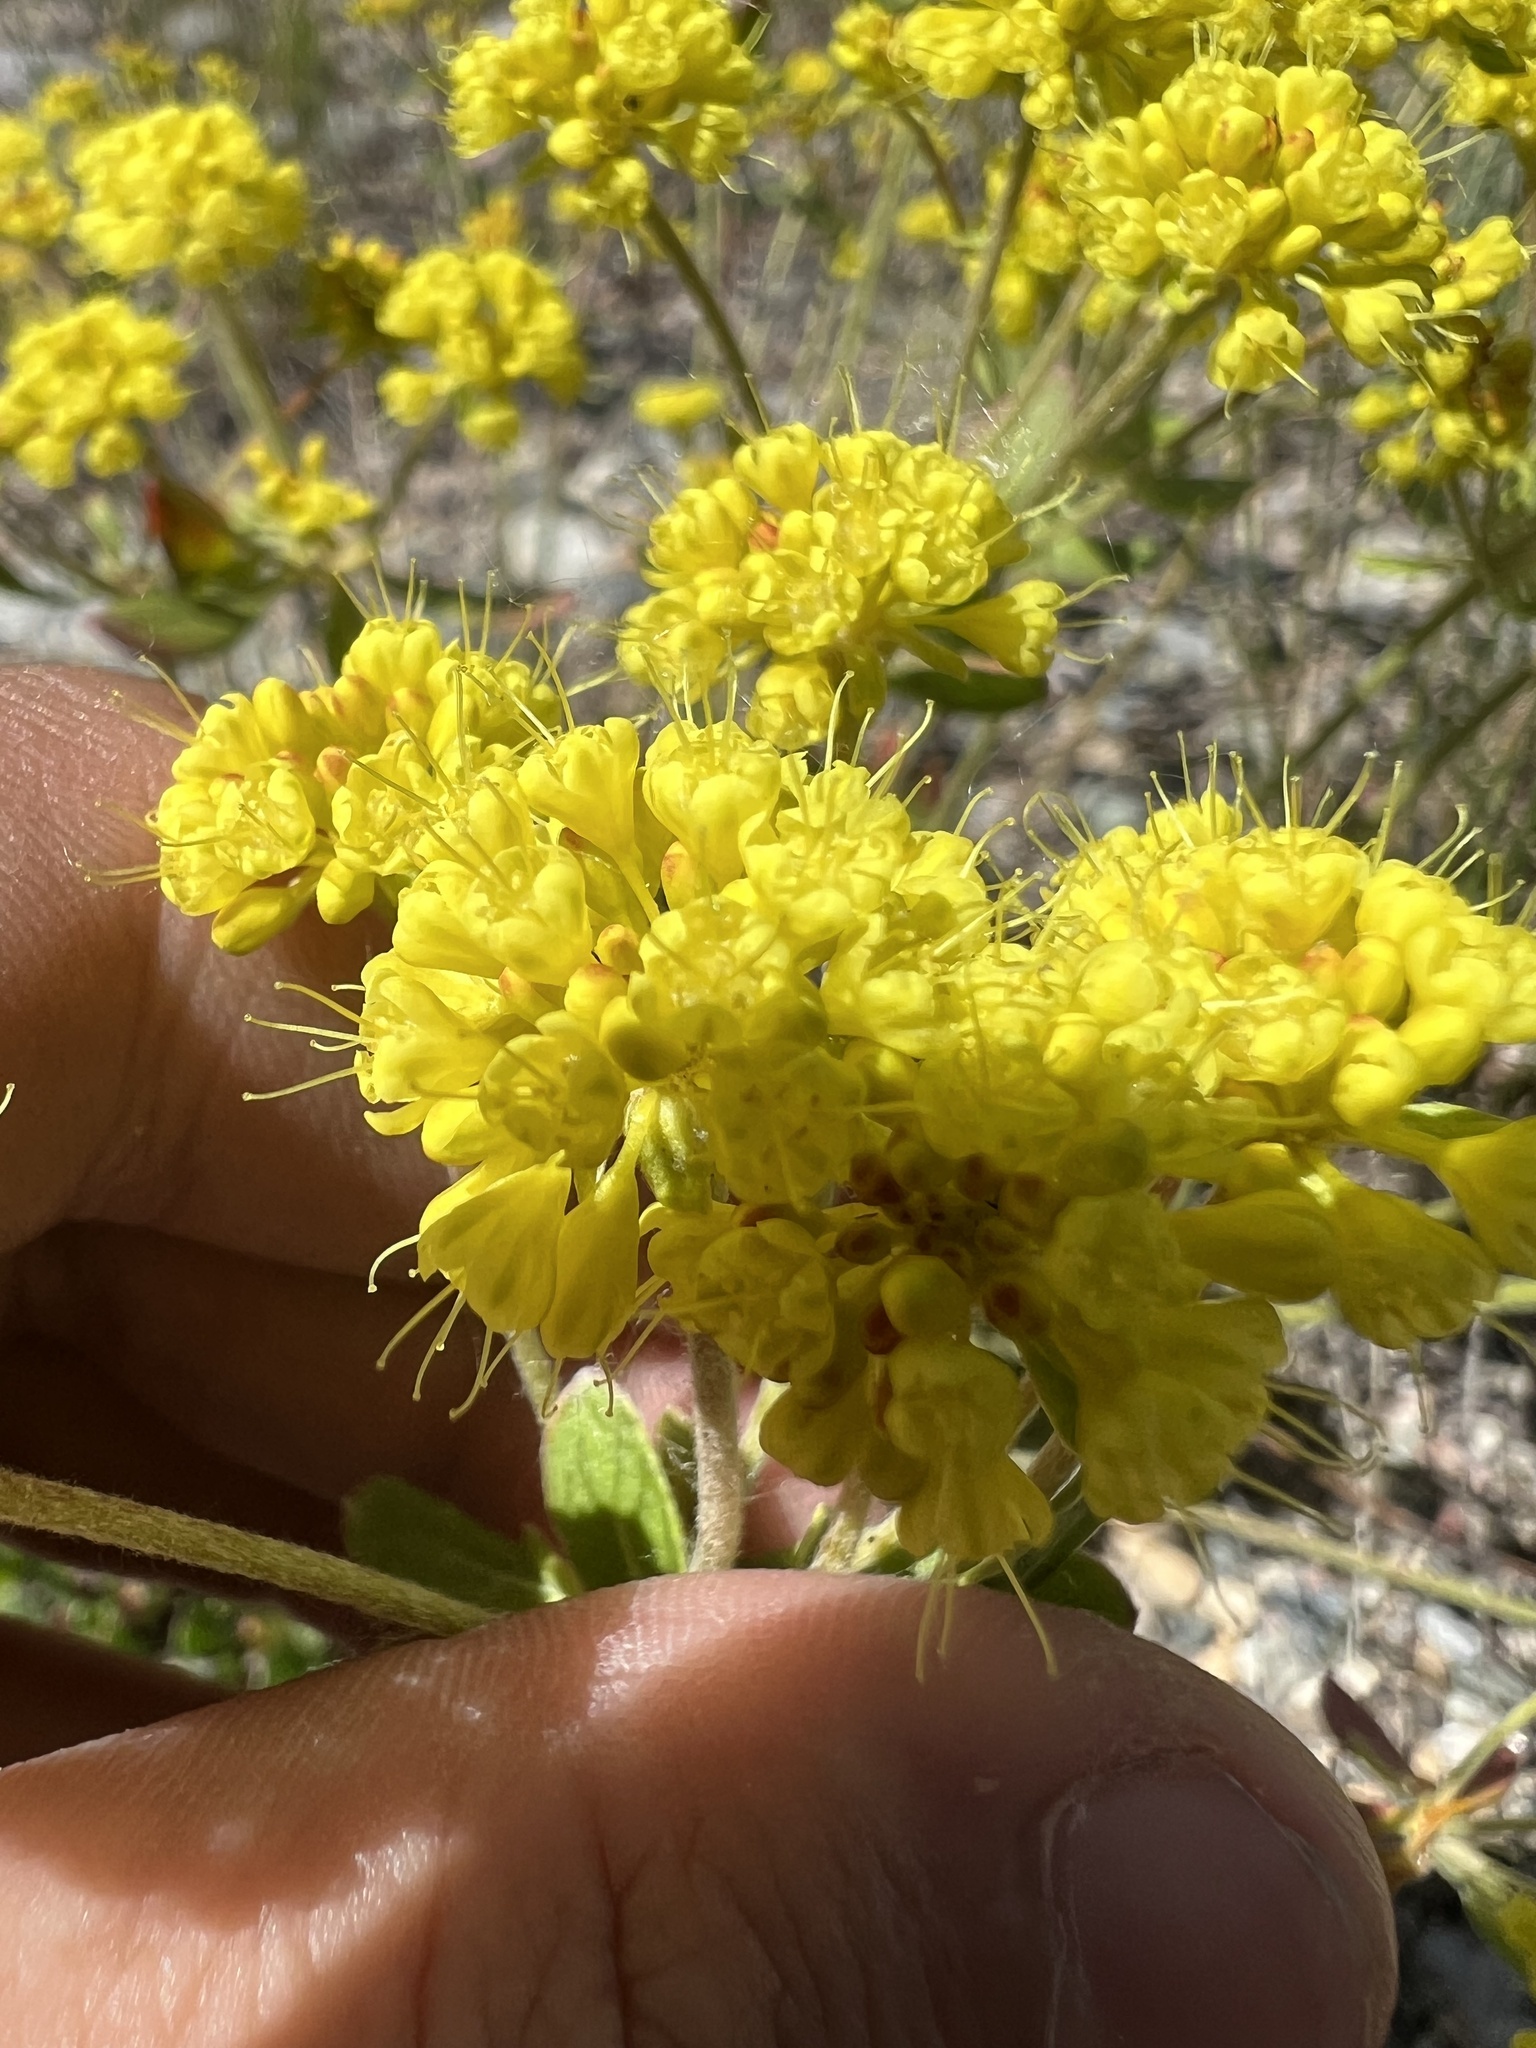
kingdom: Plantae
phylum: Tracheophyta
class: Magnoliopsida
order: Caryophyllales
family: Polygonaceae
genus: Eriogonum
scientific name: Eriogonum umbellatum
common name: Sulfur-buckwheat
